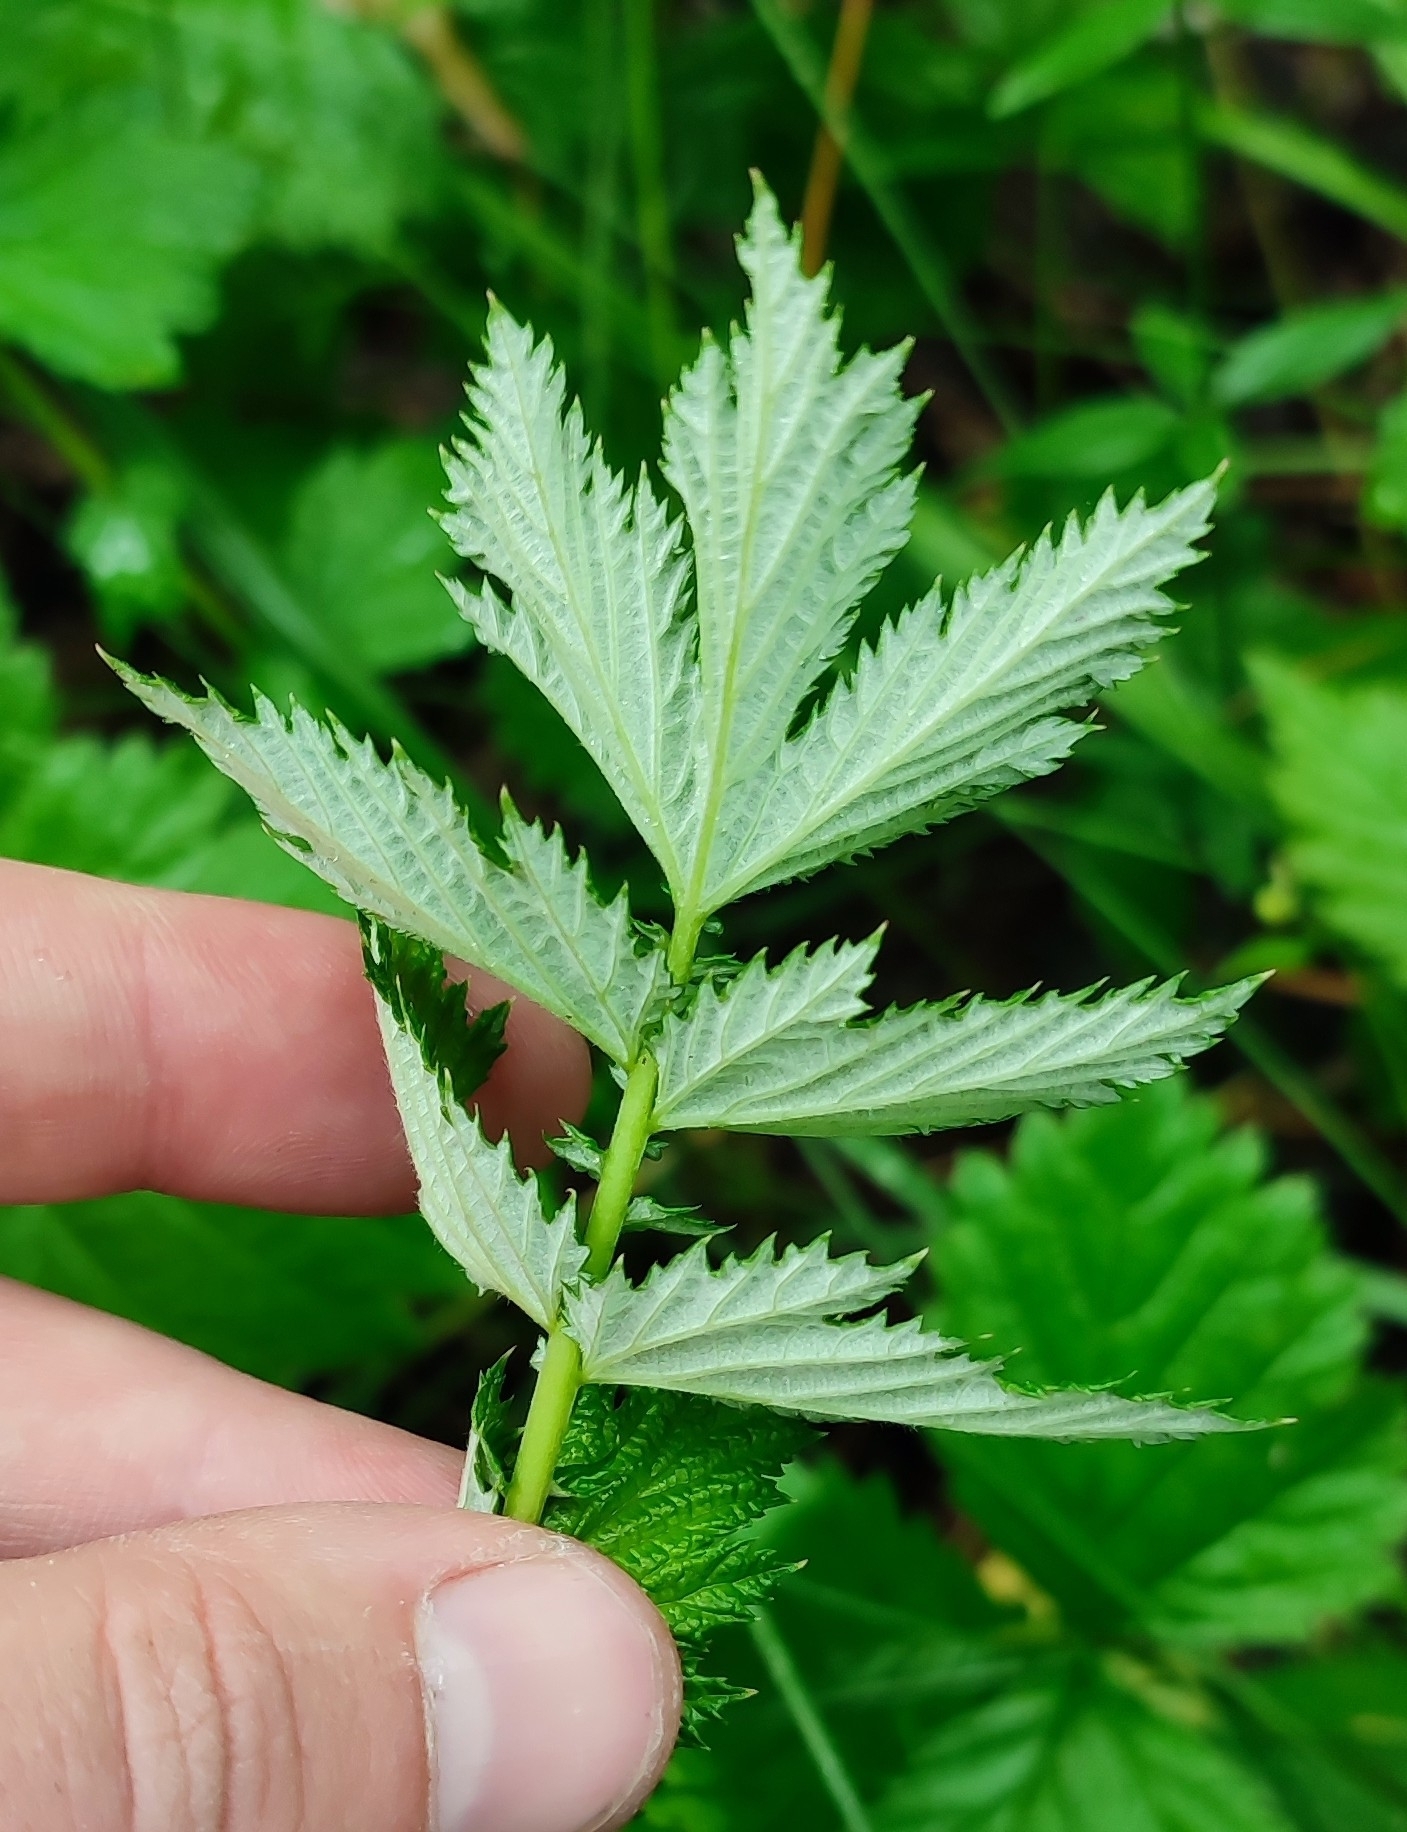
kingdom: Plantae
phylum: Tracheophyta
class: Magnoliopsida
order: Rosales
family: Rosaceae
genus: Filipendula
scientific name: Filipendula ulmaria
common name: Meadowsweet
